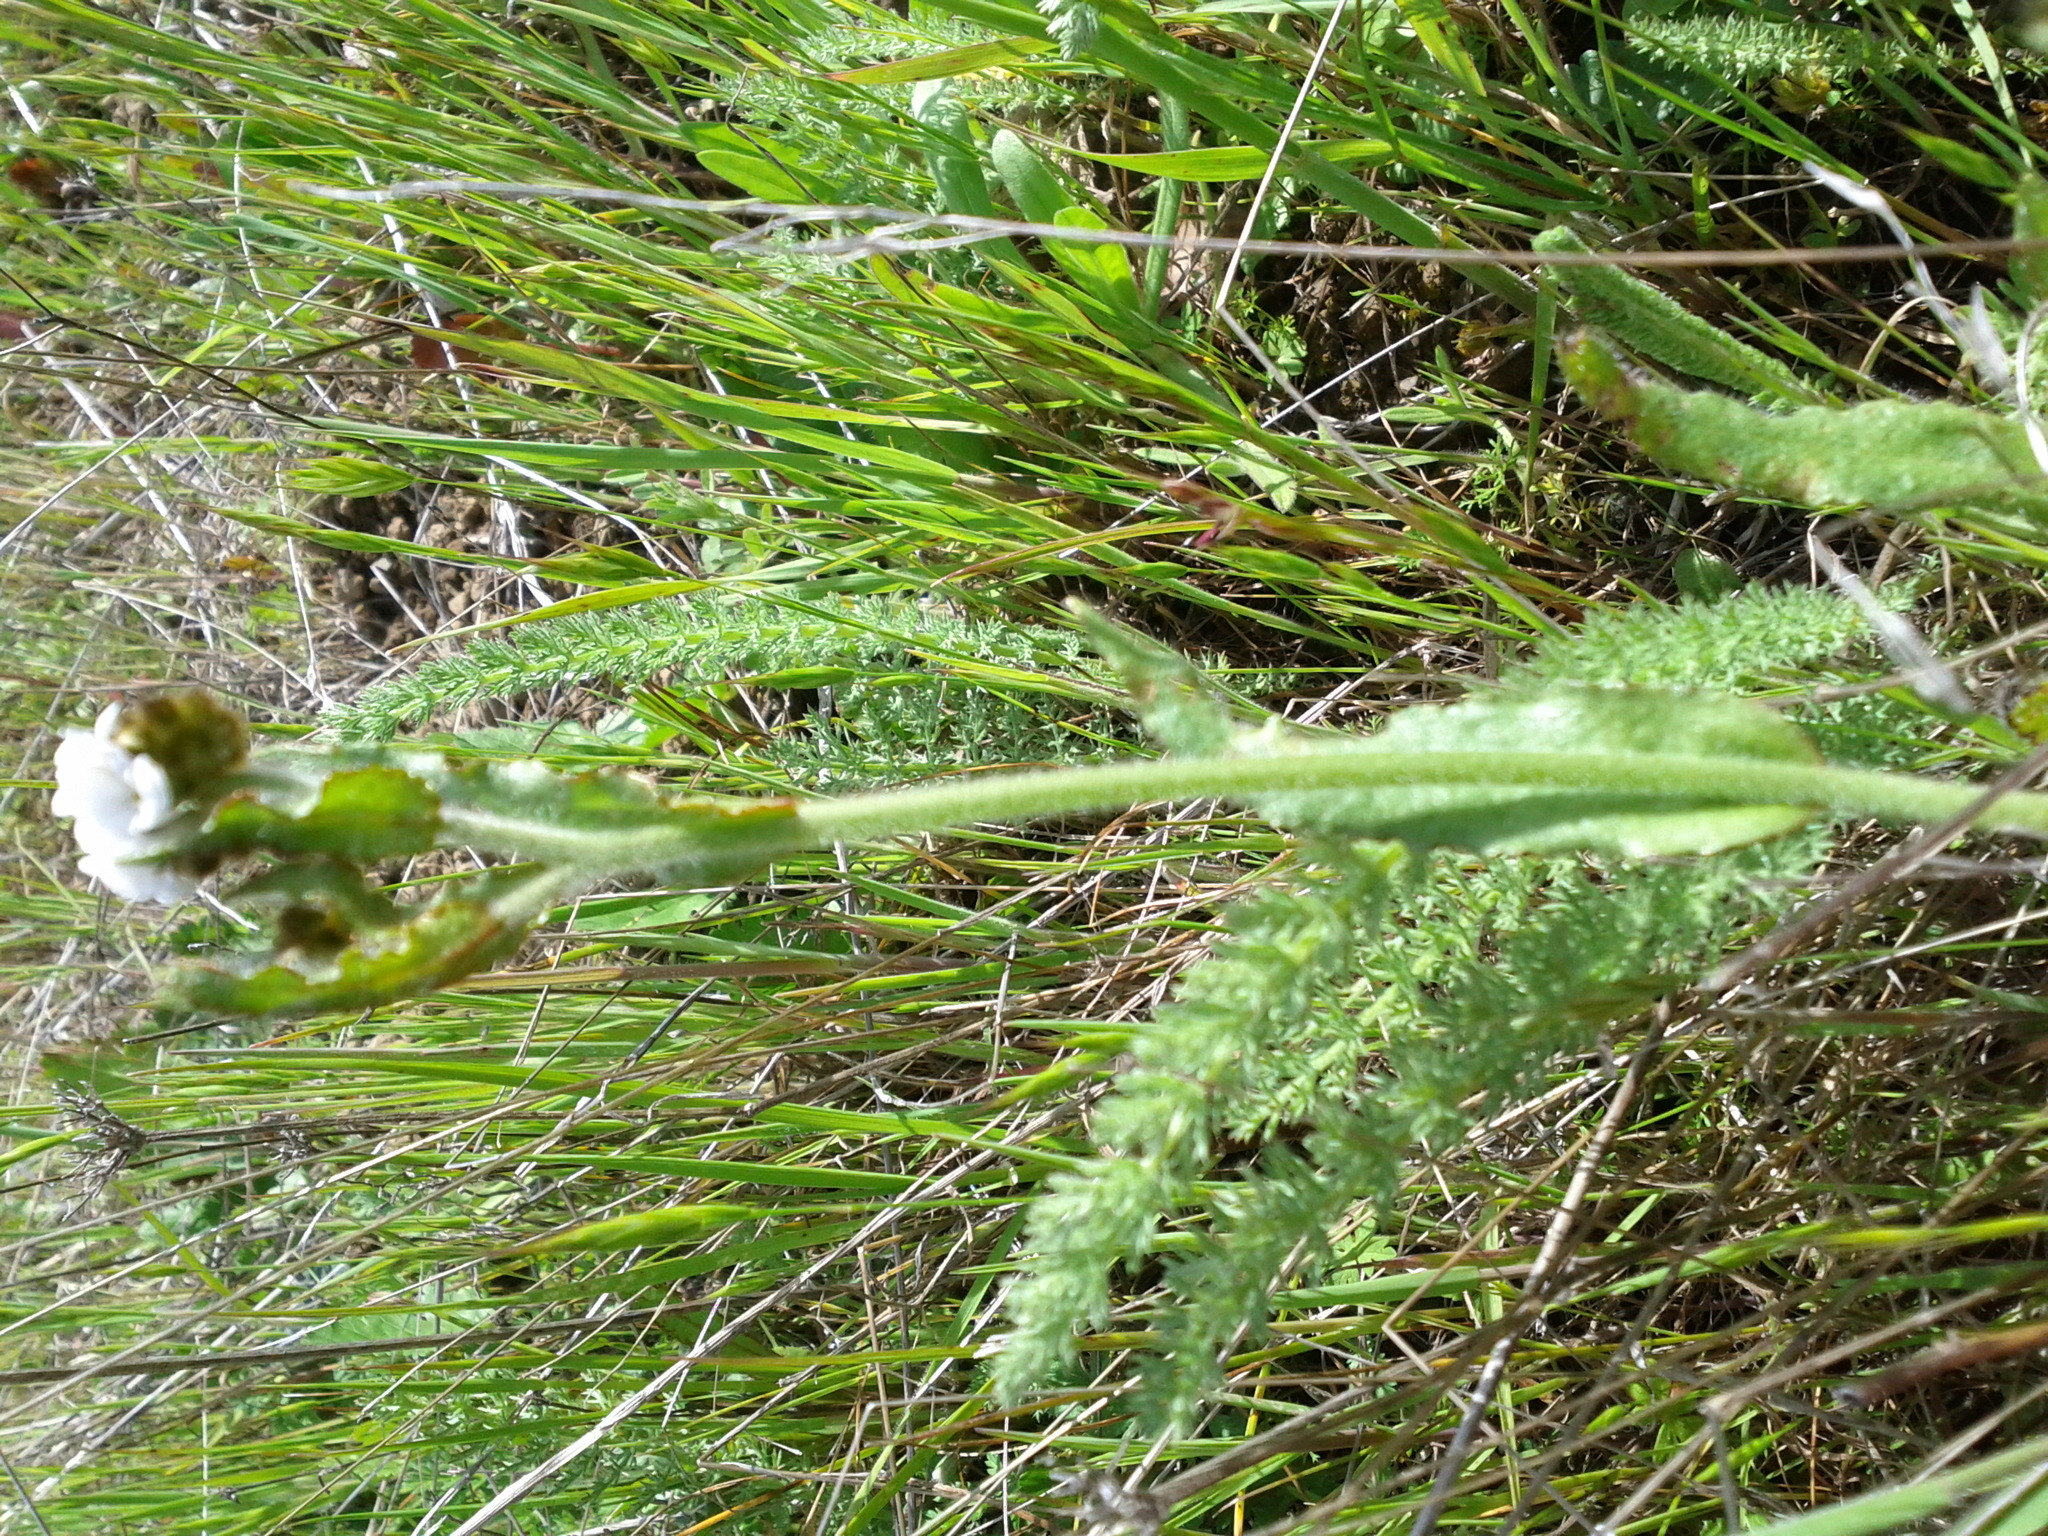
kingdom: Plantae
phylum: Tracheophyta
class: Magnoliopsida
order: Boraginales
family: Boraginaceae
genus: Plagiobothrys
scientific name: Plagiobothrys nothofulvus
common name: Popcorn-flower
